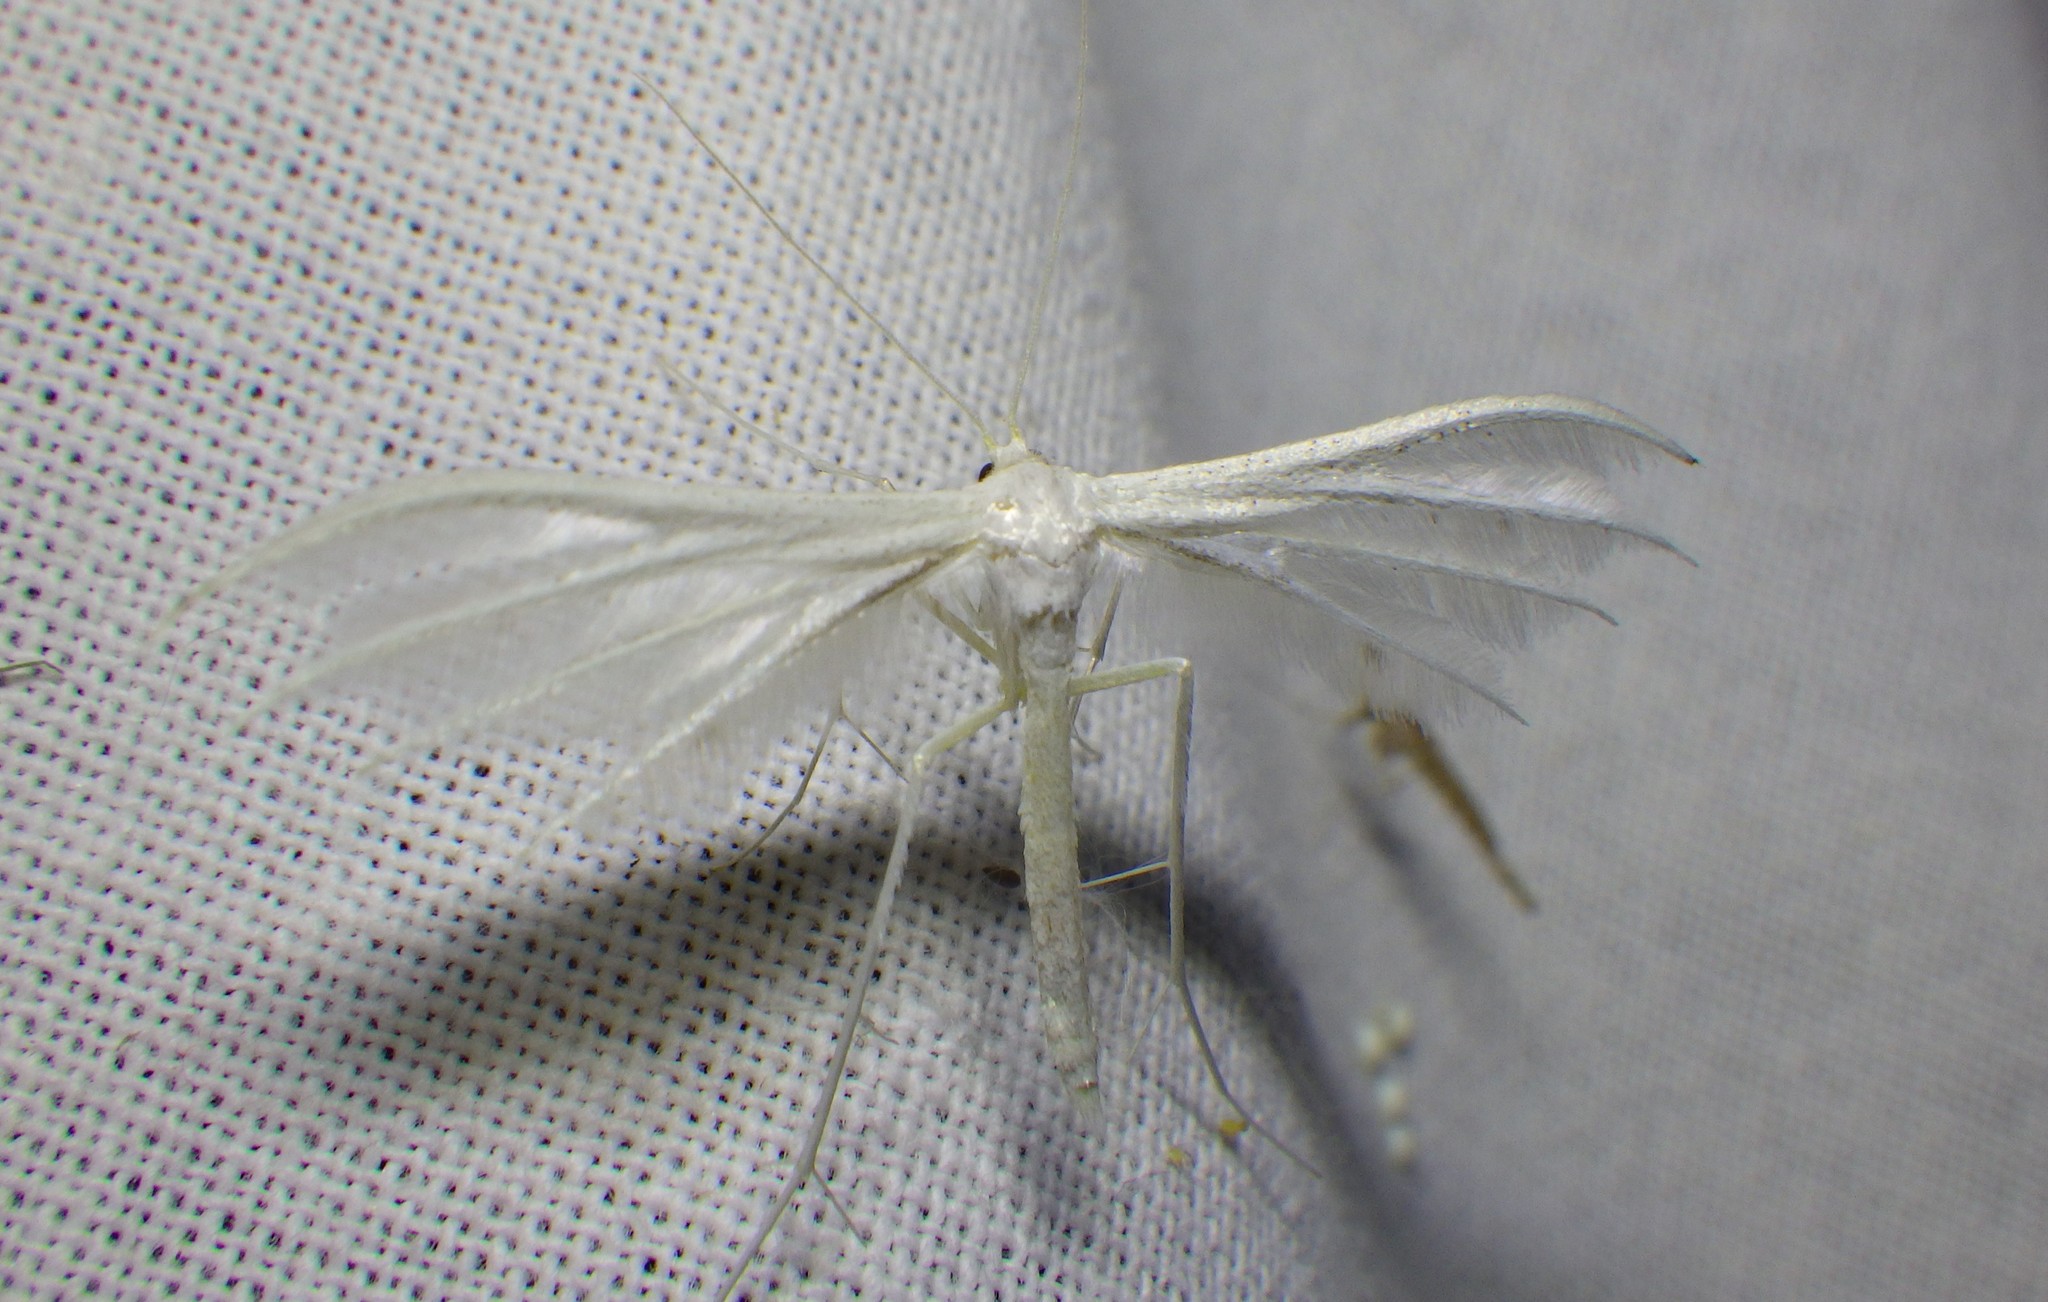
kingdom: Animalia
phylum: Arthropoda
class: Insecta
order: Lepidoptera
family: Pterophoridae
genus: Pterophorus
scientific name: Pterophorus pentadactyla
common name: White plume moth
